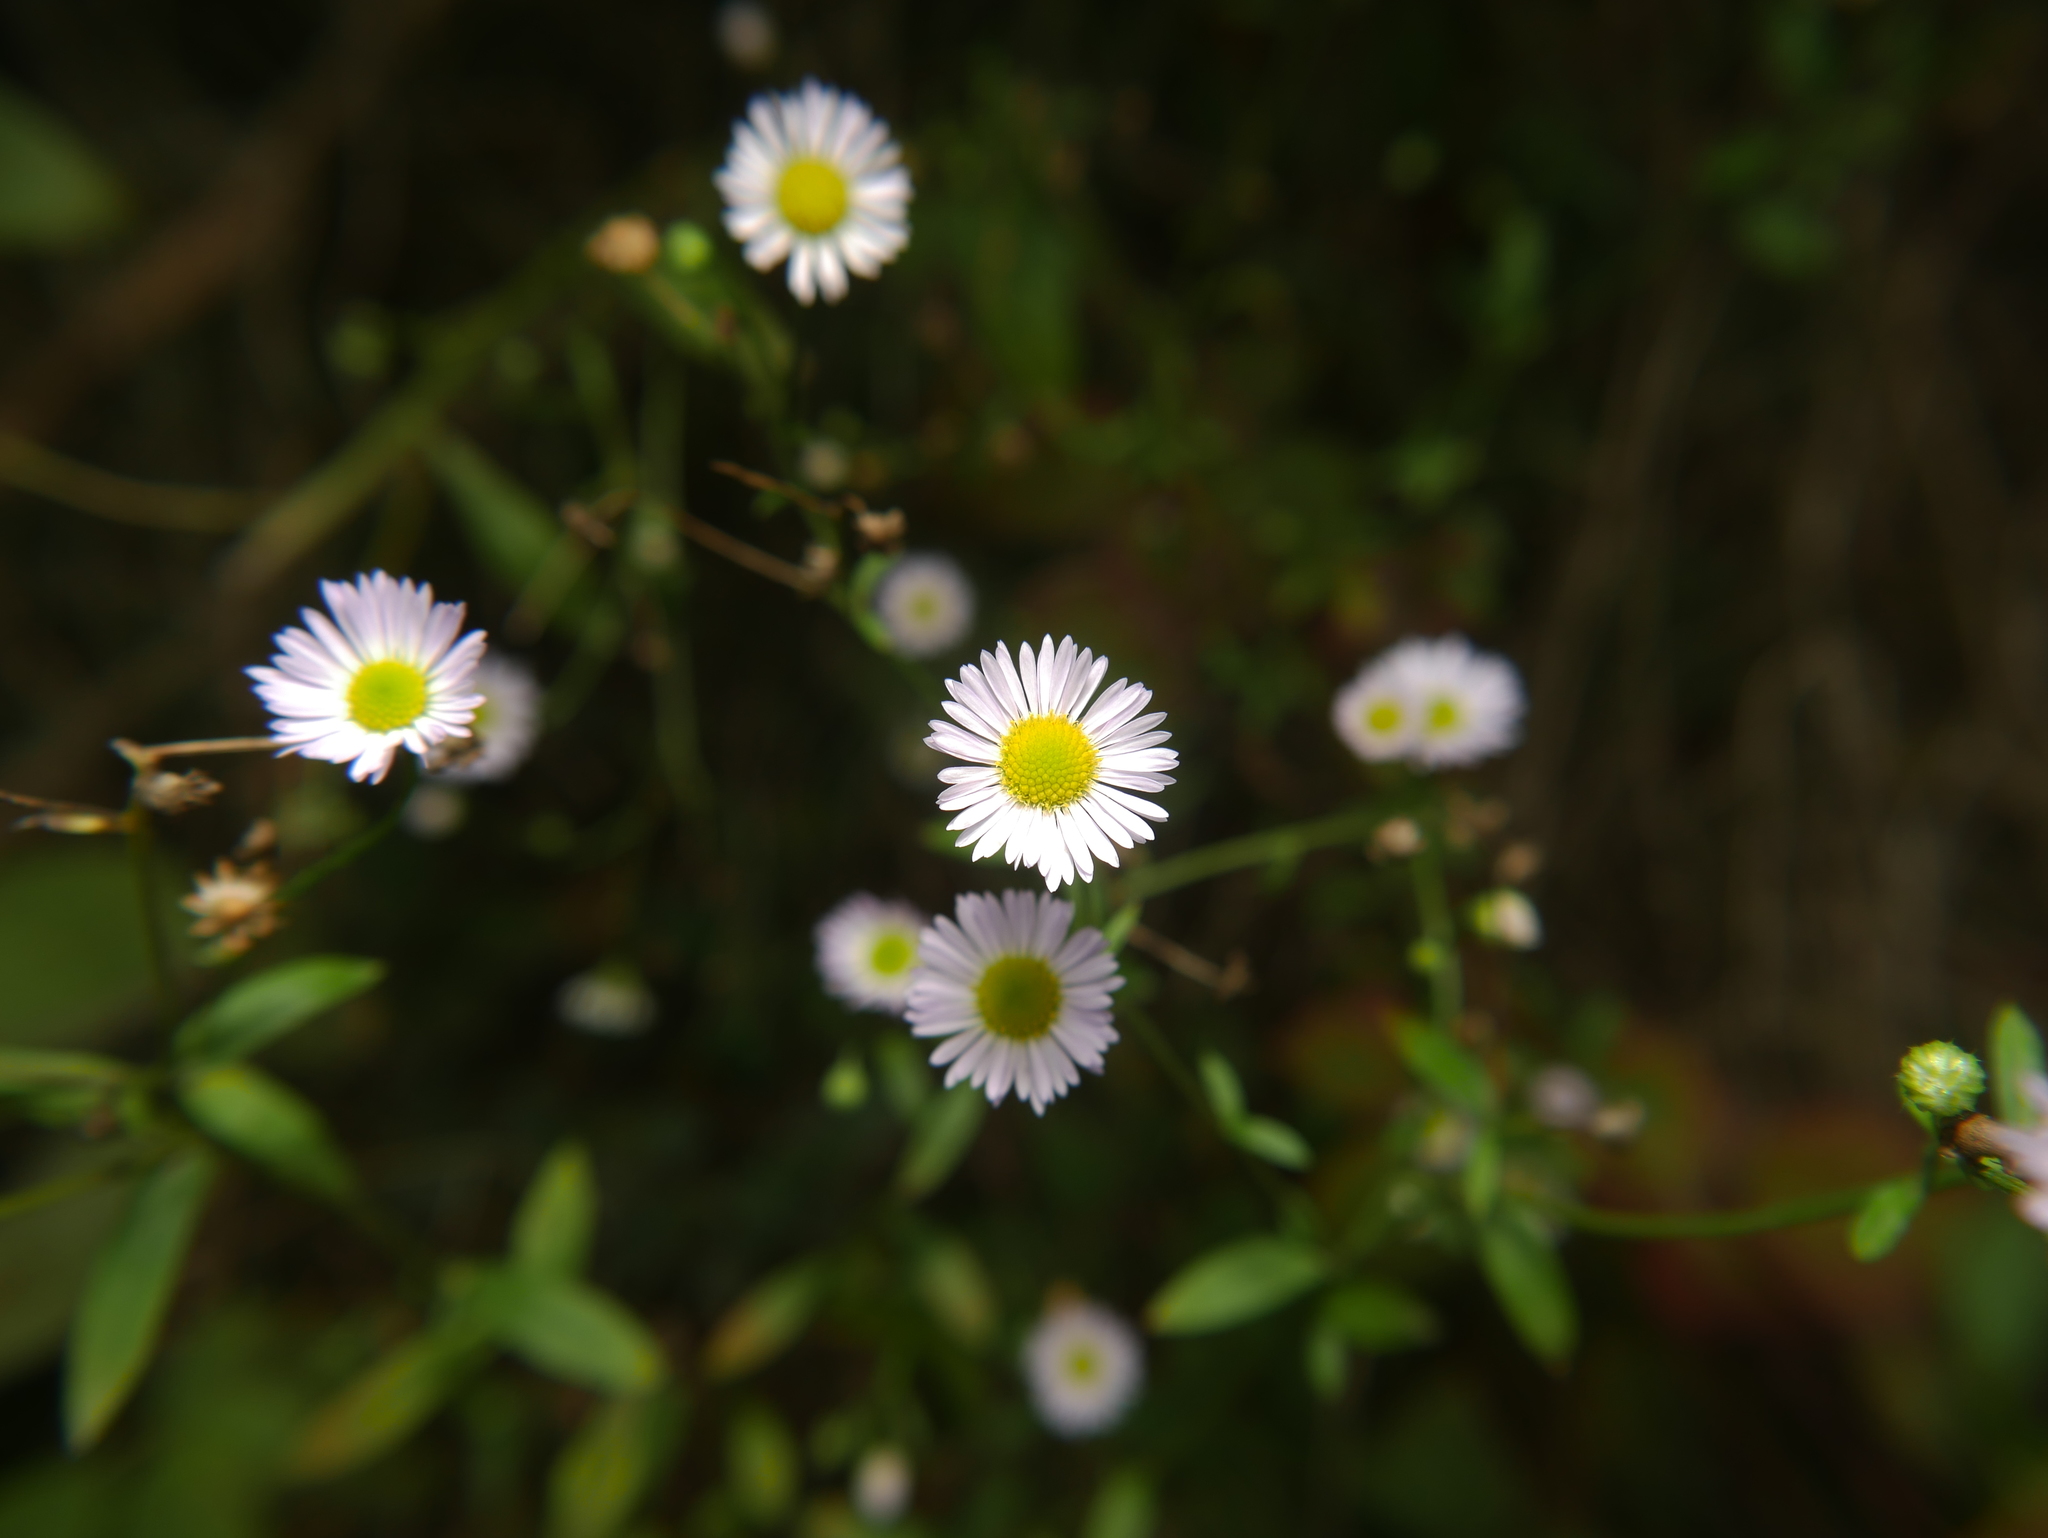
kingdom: Plantae
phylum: Tracheophyta
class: Magnoliopsida
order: Asterales
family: Asteraceae
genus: Erigeron
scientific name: Erigeron annuus
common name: Tall fleabane
